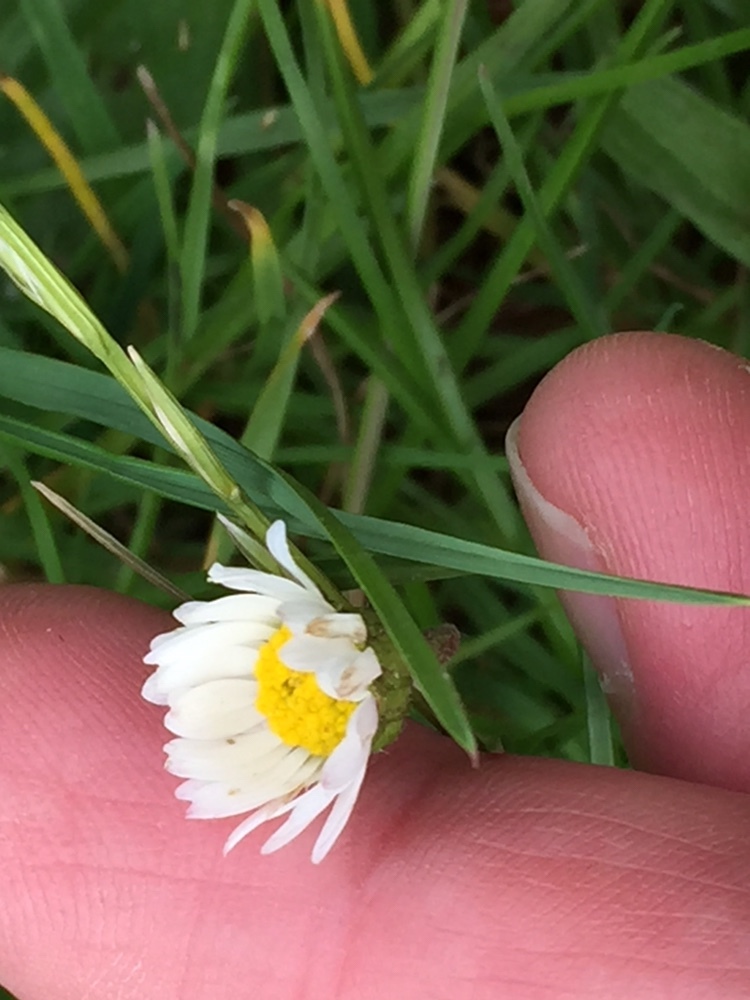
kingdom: Plantae
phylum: Tracheophyta
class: Magnoliopsida
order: Asterales
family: Asteraceae
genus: Bellis
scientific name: Bellis perennis
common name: Lawndaisy
